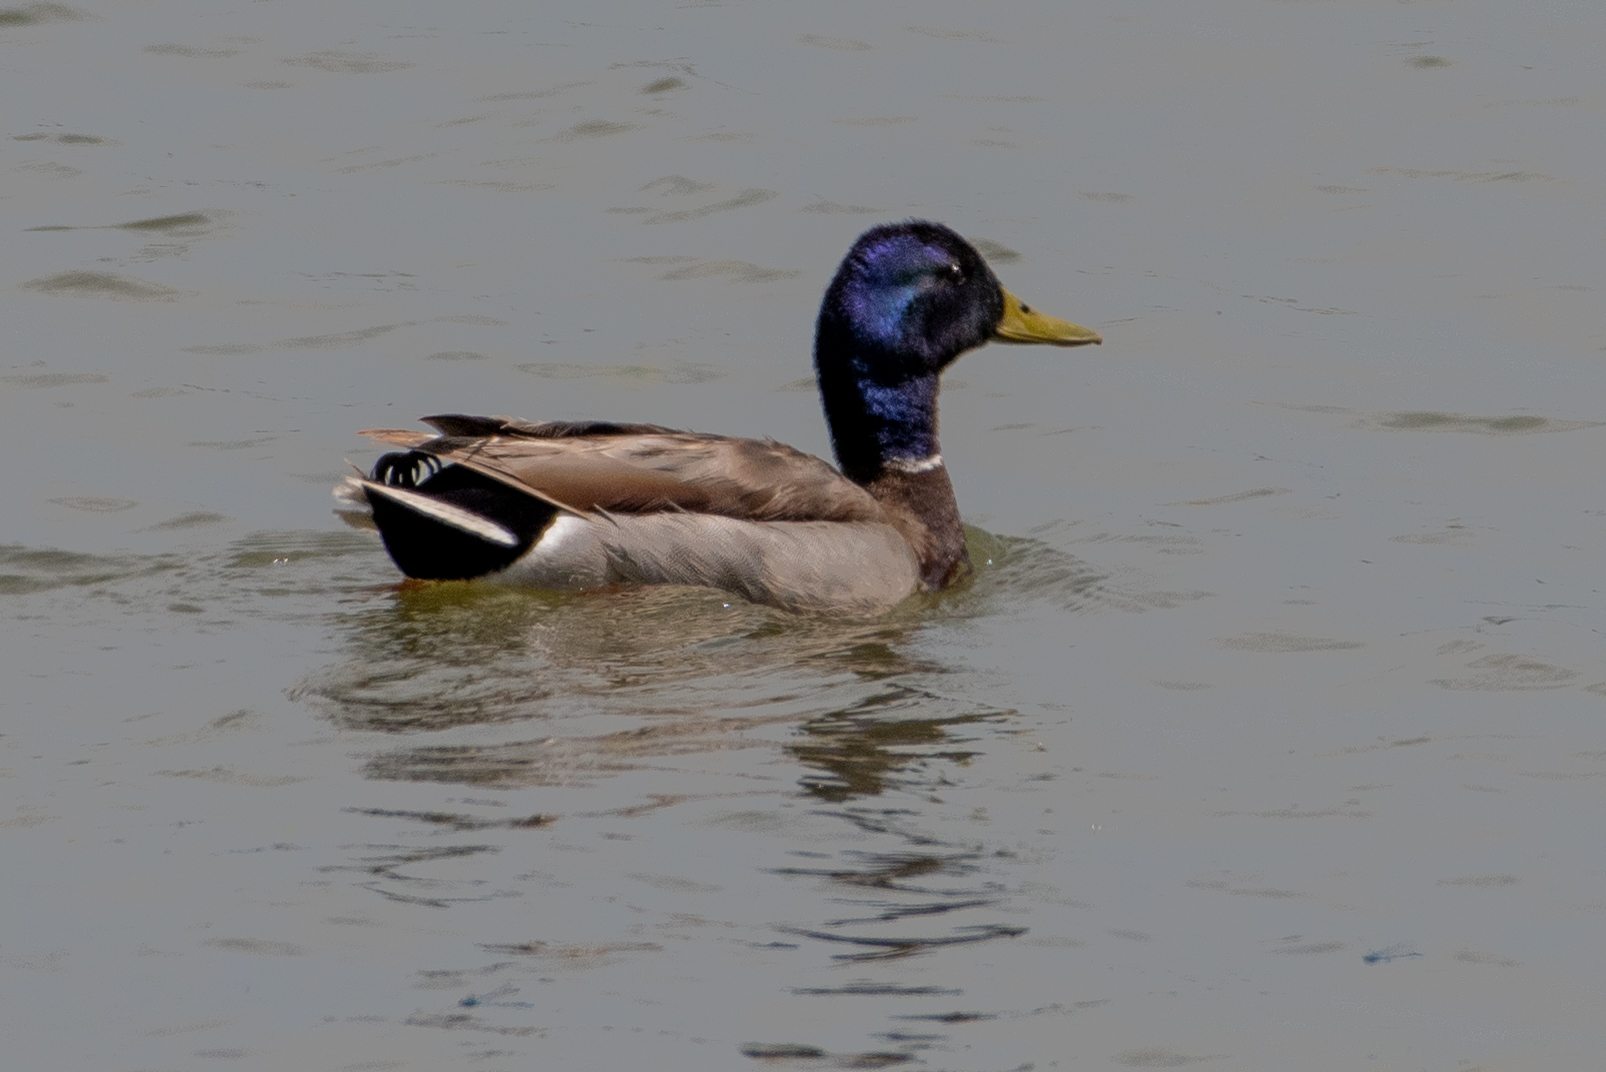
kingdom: Animalia
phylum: Chordata
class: Aves
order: Anseriformes
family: Anatidae
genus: Anas
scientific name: Anas platyrhynchos
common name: Mallard
